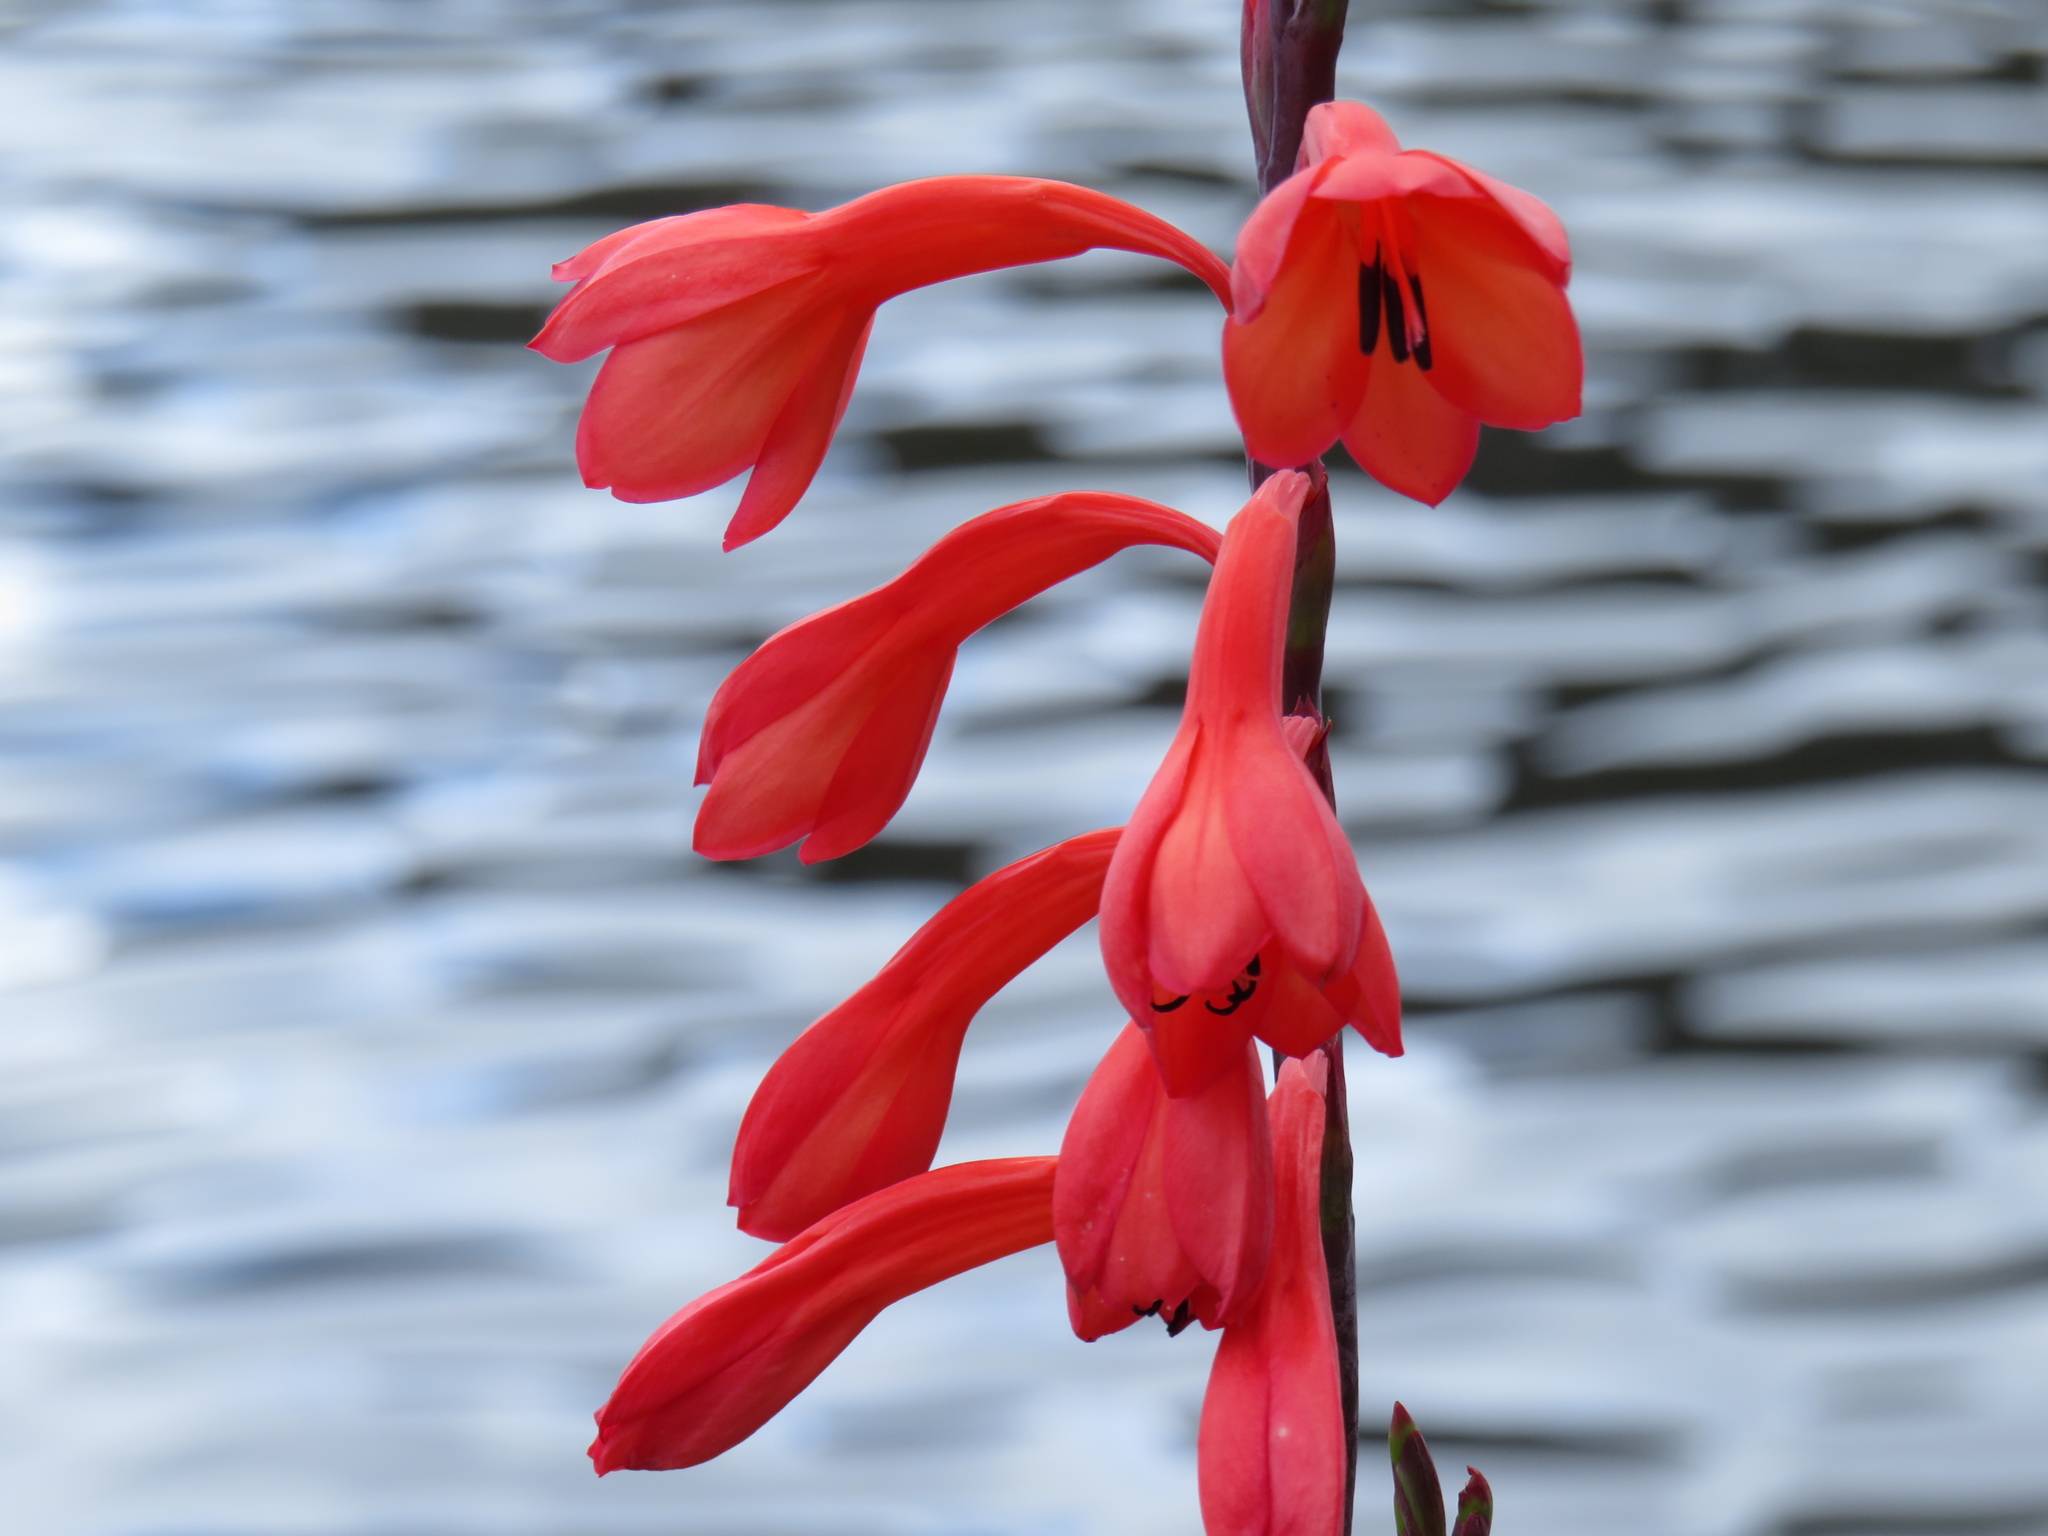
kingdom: Plantae
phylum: Tracheophyta
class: Liliopsida
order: Asparagales
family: Iridaceae
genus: Watsonia
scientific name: Watsonia tabularis
